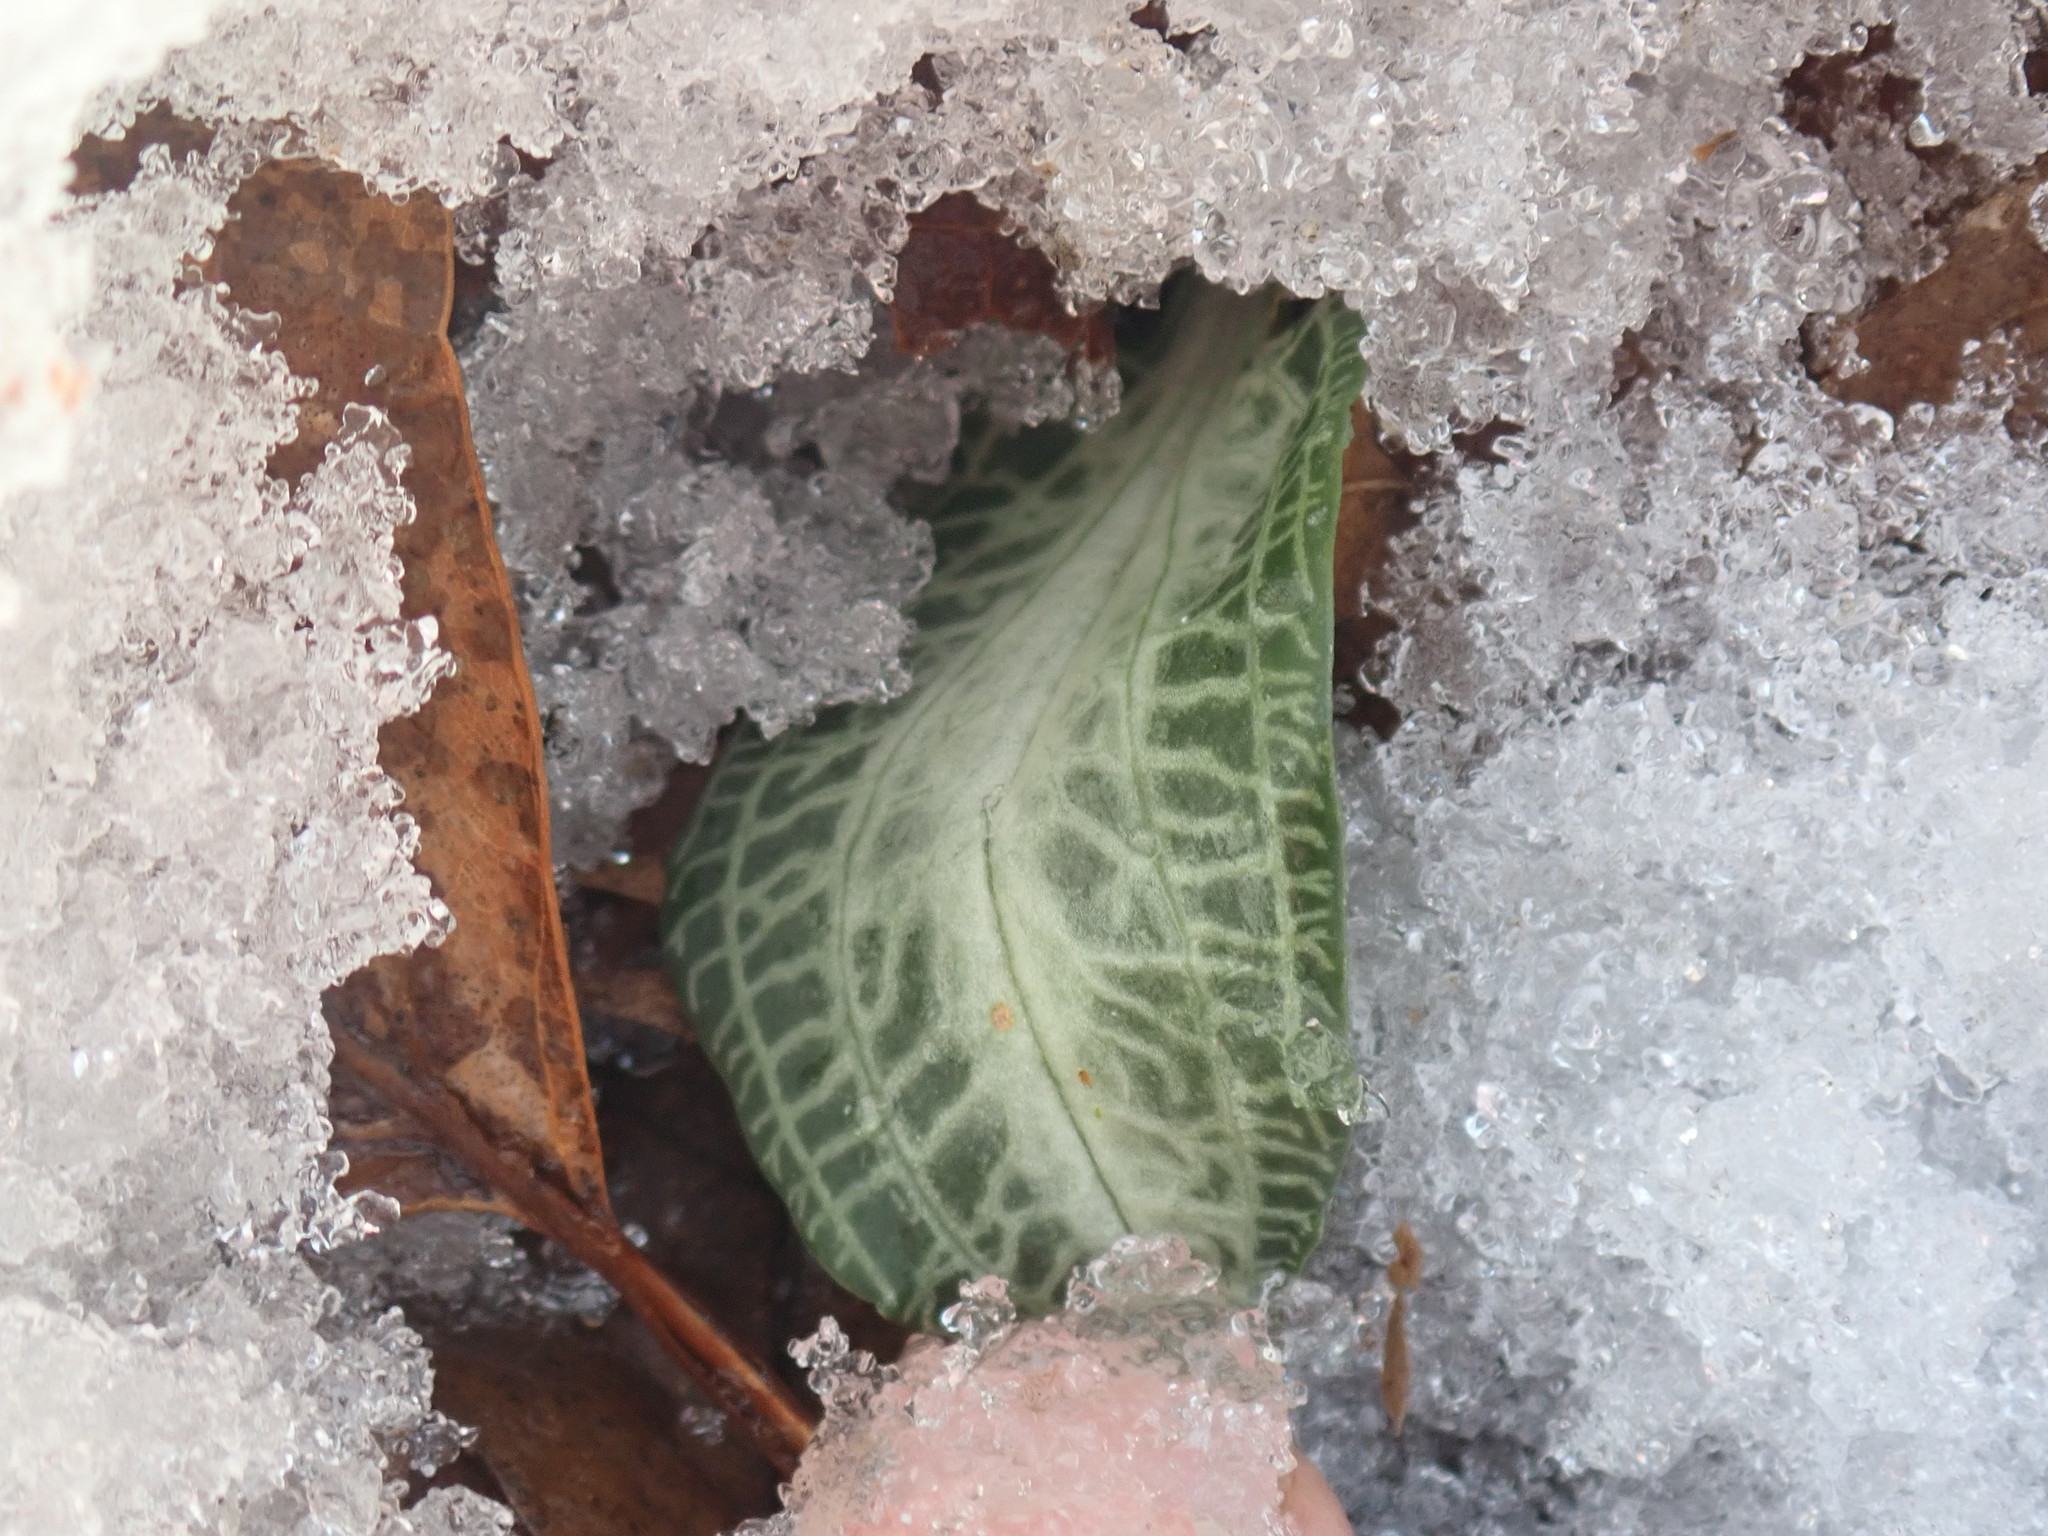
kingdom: Plantae
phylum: Tracheophyta
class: Liliopsida
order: Asparagales
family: Orchidaceae
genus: Goodyera
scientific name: Goodyera pubescens
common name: Downy rattlesnake-plantain
